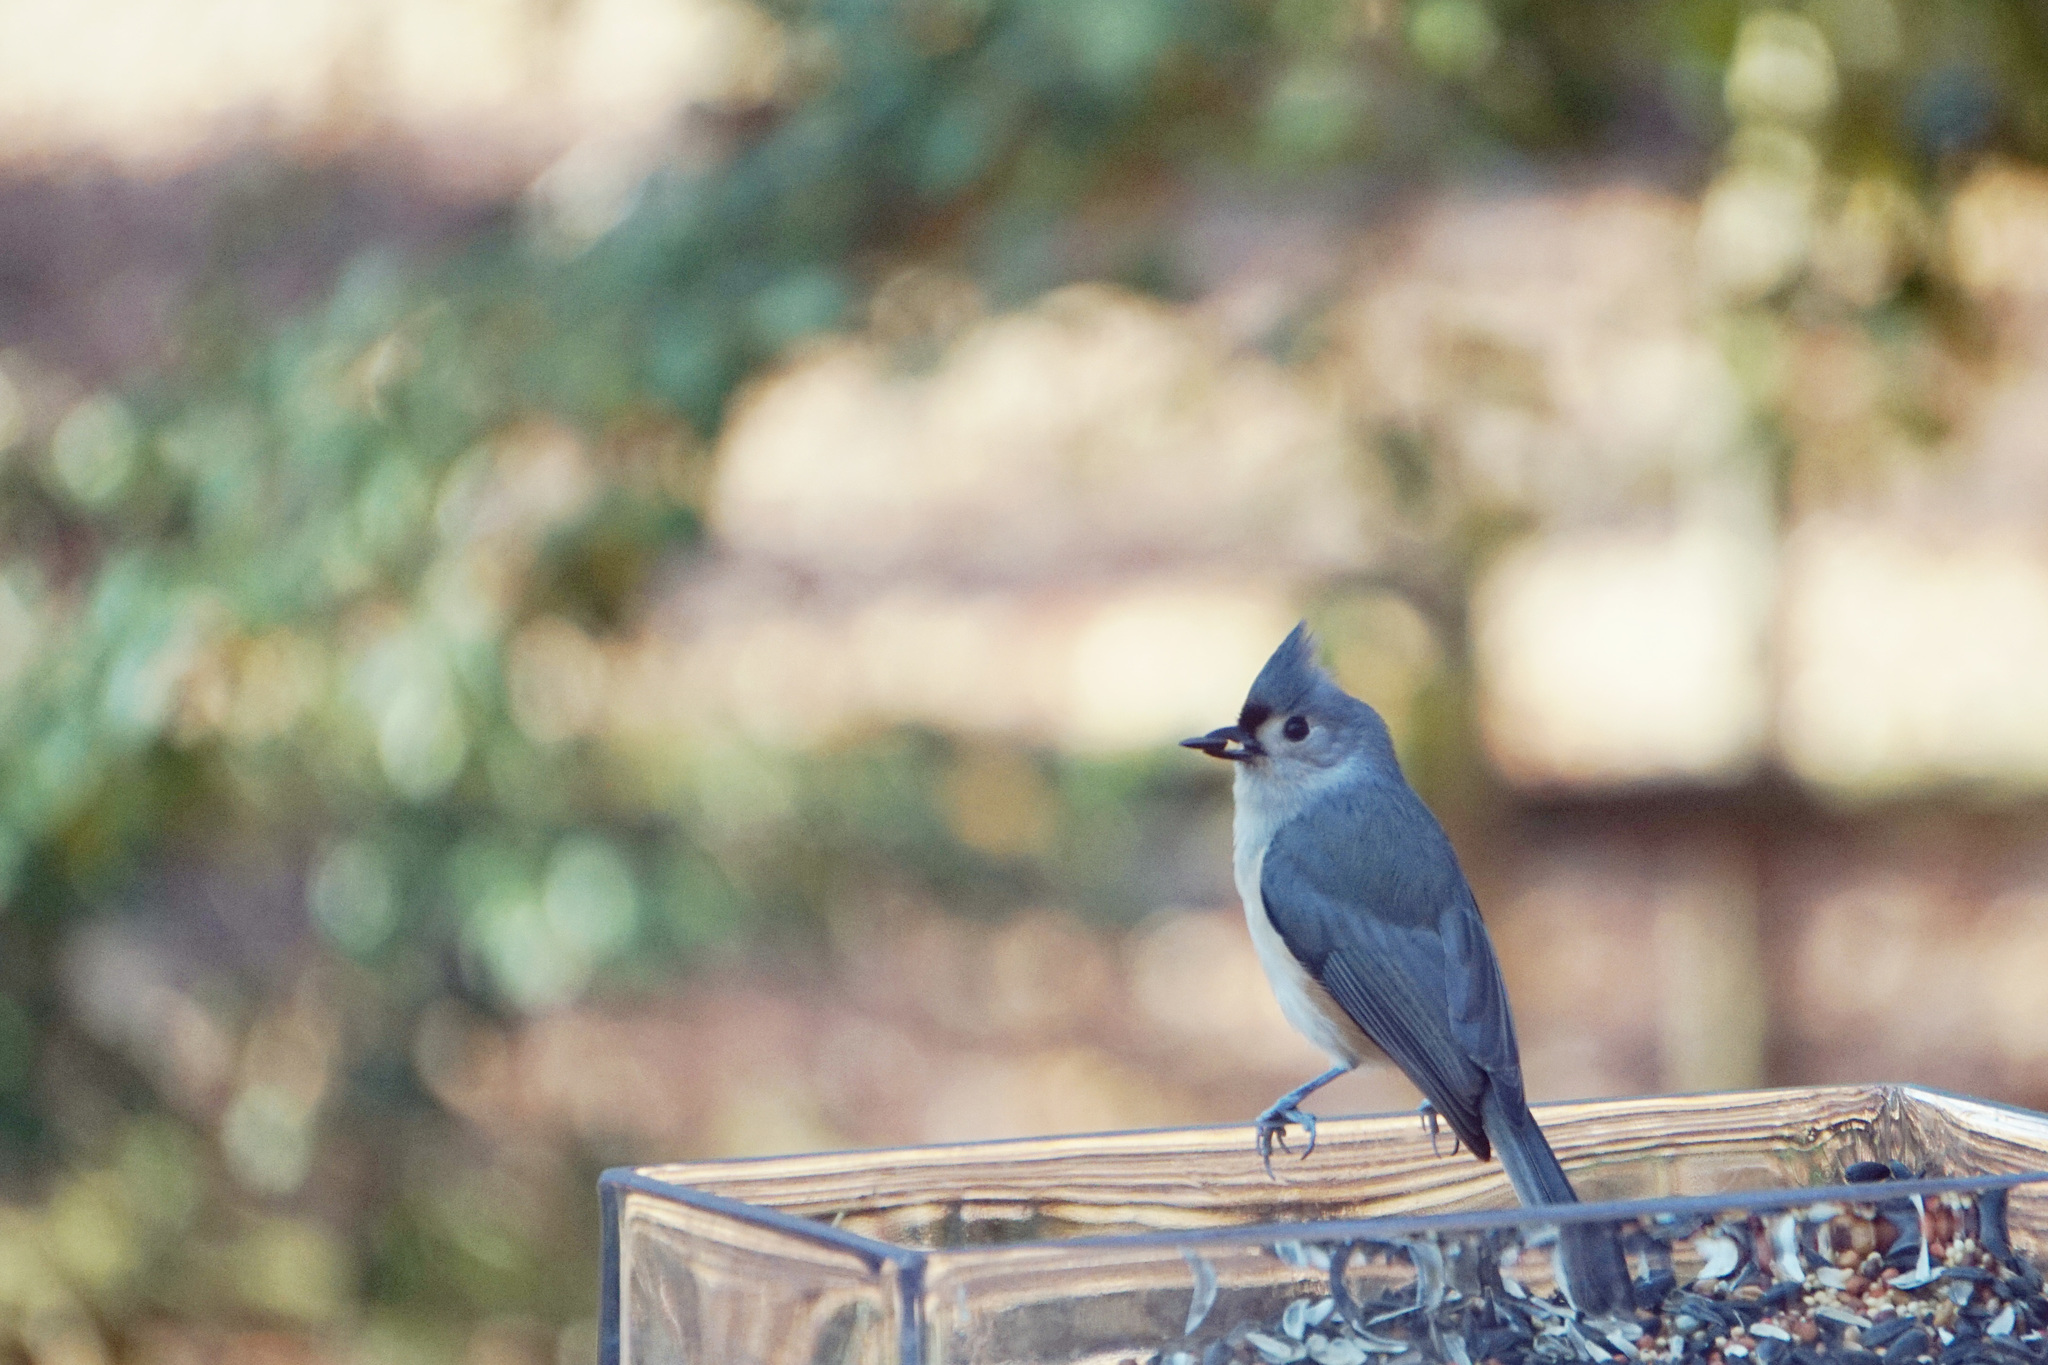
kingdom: Animalia
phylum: Chordata
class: Aves
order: Passeriformes
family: Paridae
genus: Baeolophus
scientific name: Baeolophus bicolor
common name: Tufted titmouse
